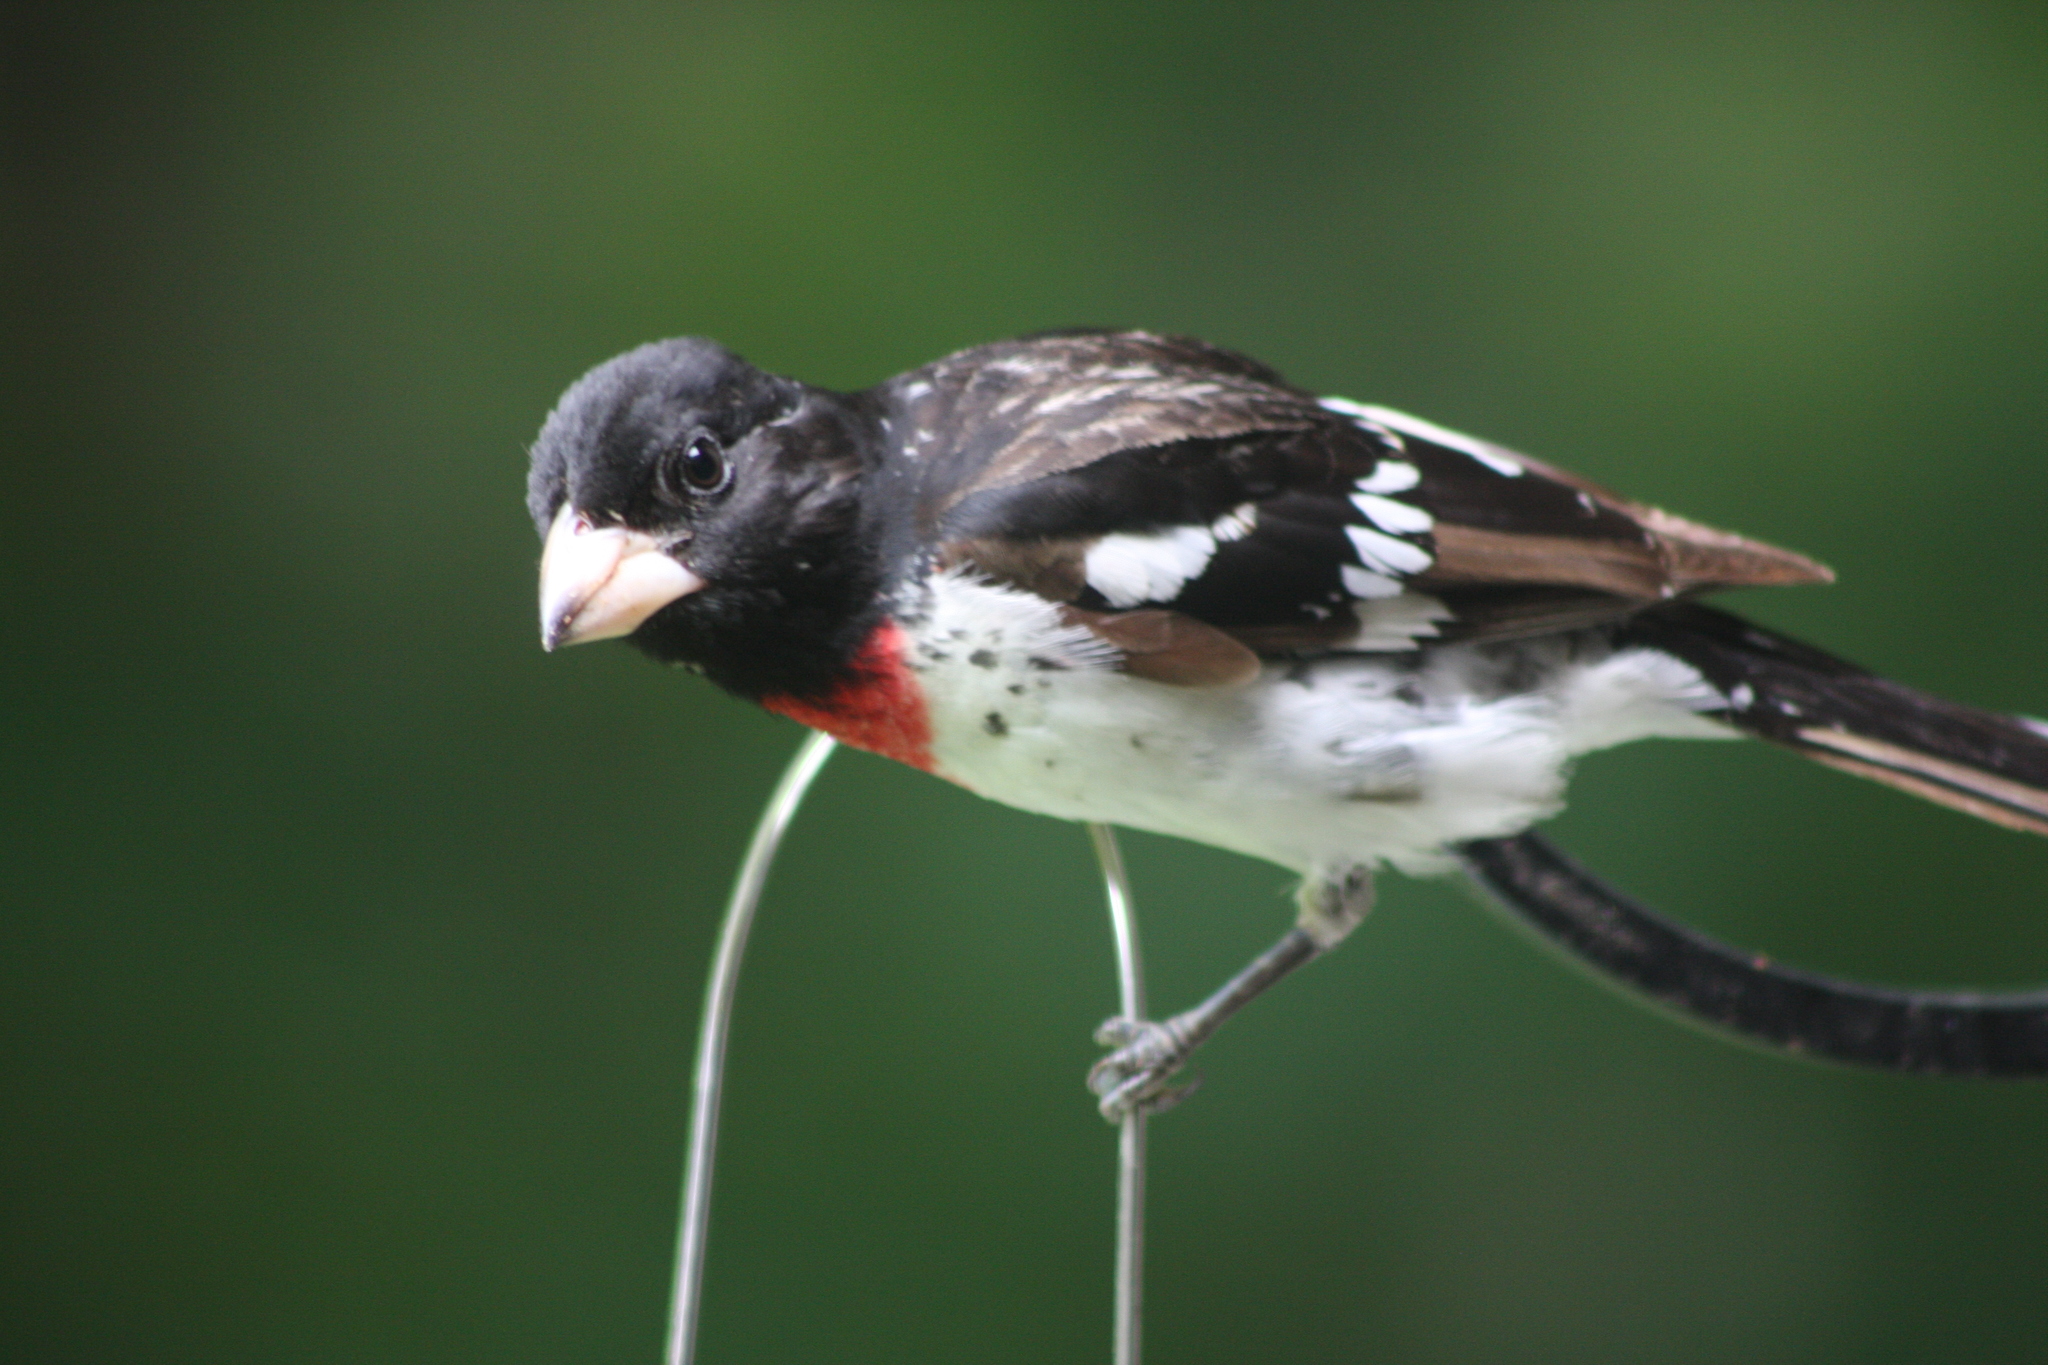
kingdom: Animalia
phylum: Chordata
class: Aves
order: Passeriformes
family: Cardinalidae
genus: Pheucticus
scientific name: Pheucticus ludovicianus
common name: Rose-breasted grosbeak
